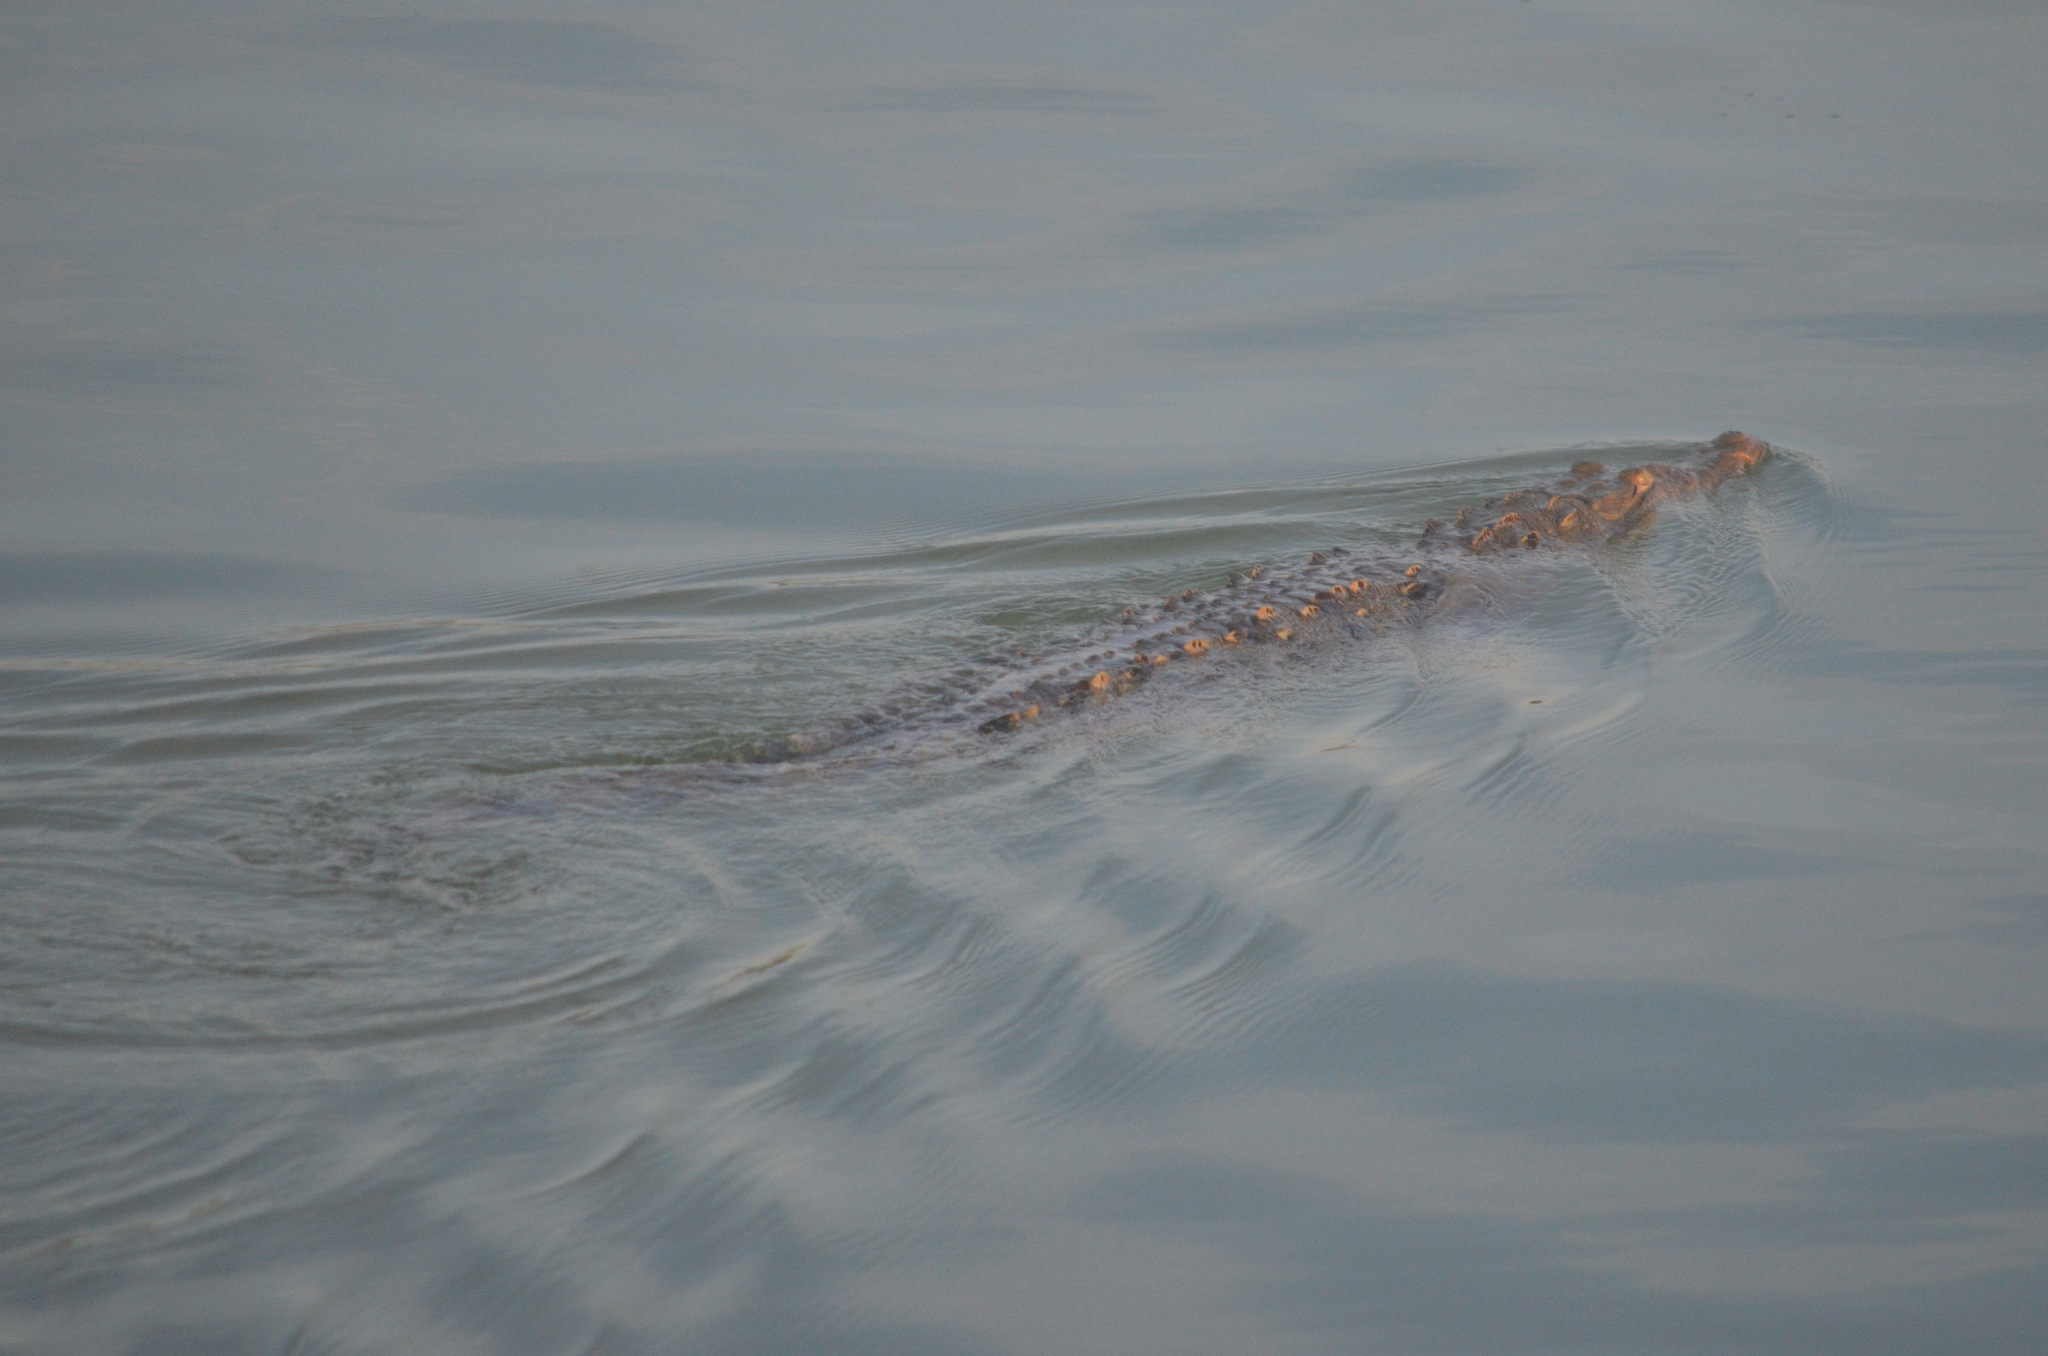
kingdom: Animalia
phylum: Chordata
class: Crocodylia
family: Crocodylidae
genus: Crocodylus
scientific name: Crocodylus moreletii
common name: Morelet's crocodile
